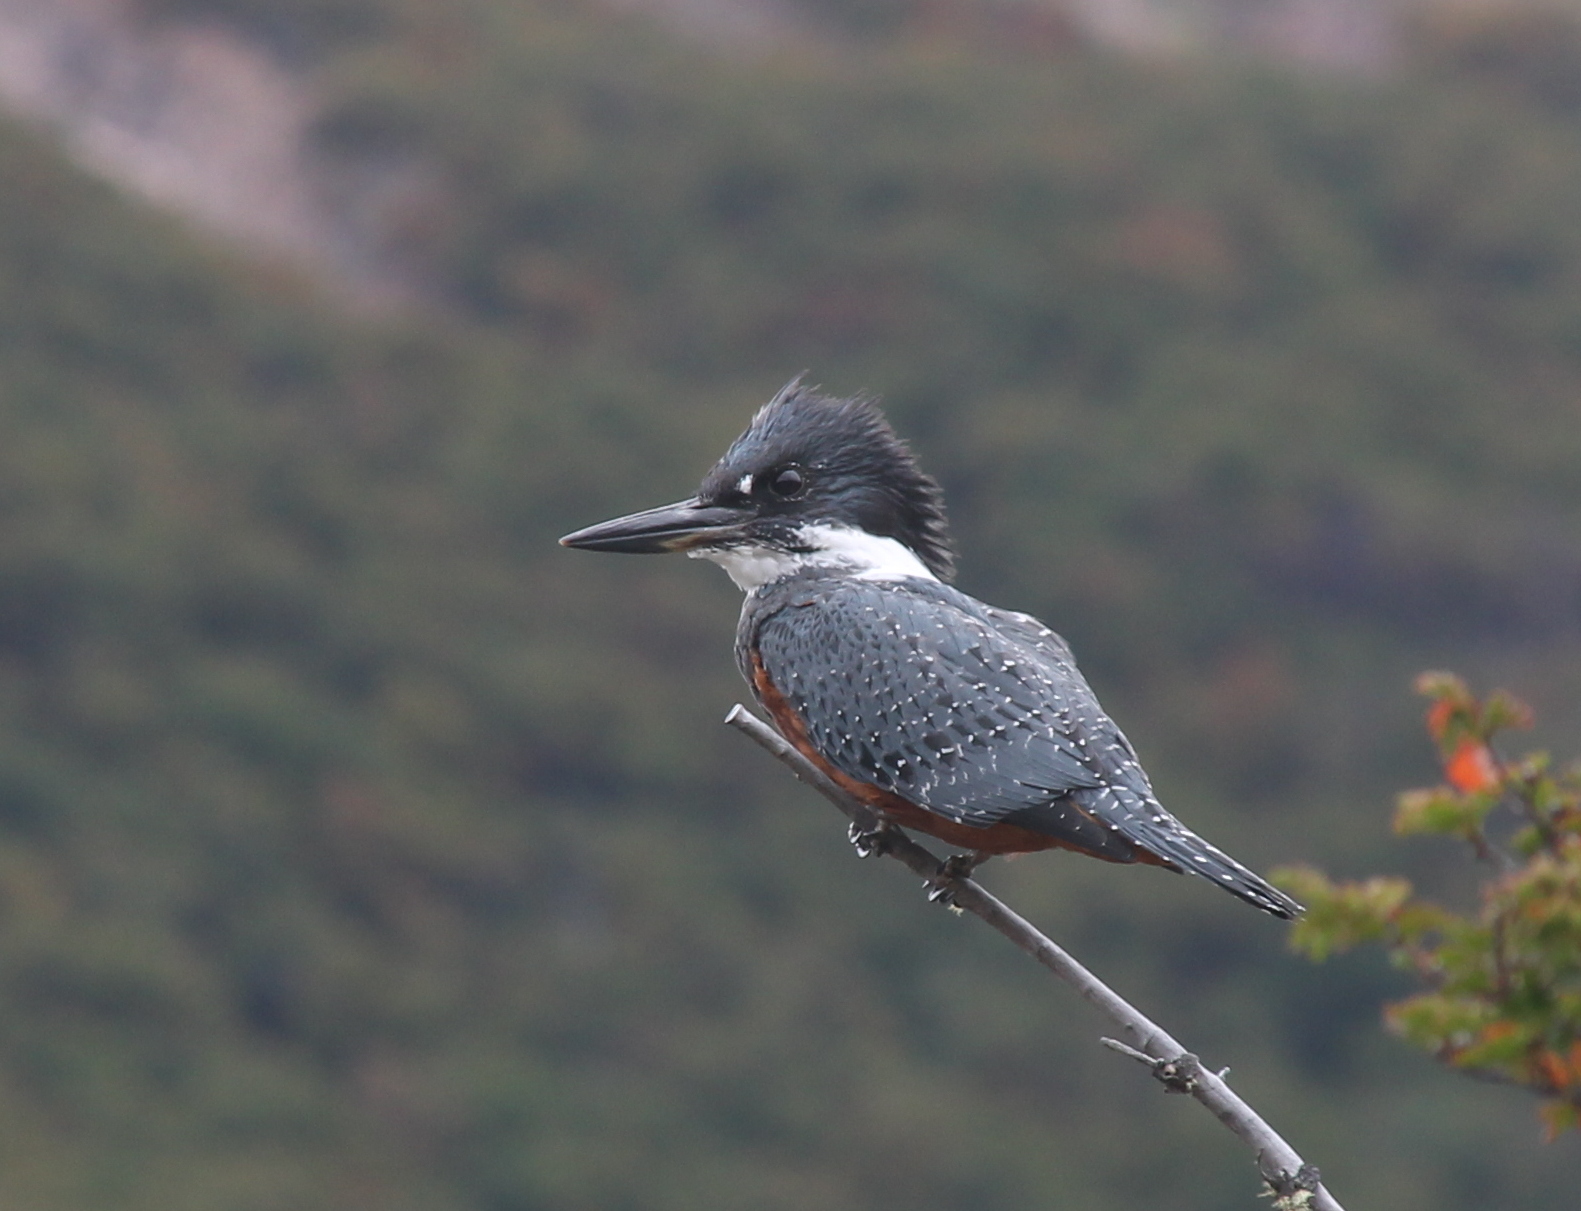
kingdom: Animalia
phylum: Chordata
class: Aves
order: Coraciiformes
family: Alcedinidae
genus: Megaceryle
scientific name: Megaceryle torquata
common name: Ringed kingfisher
